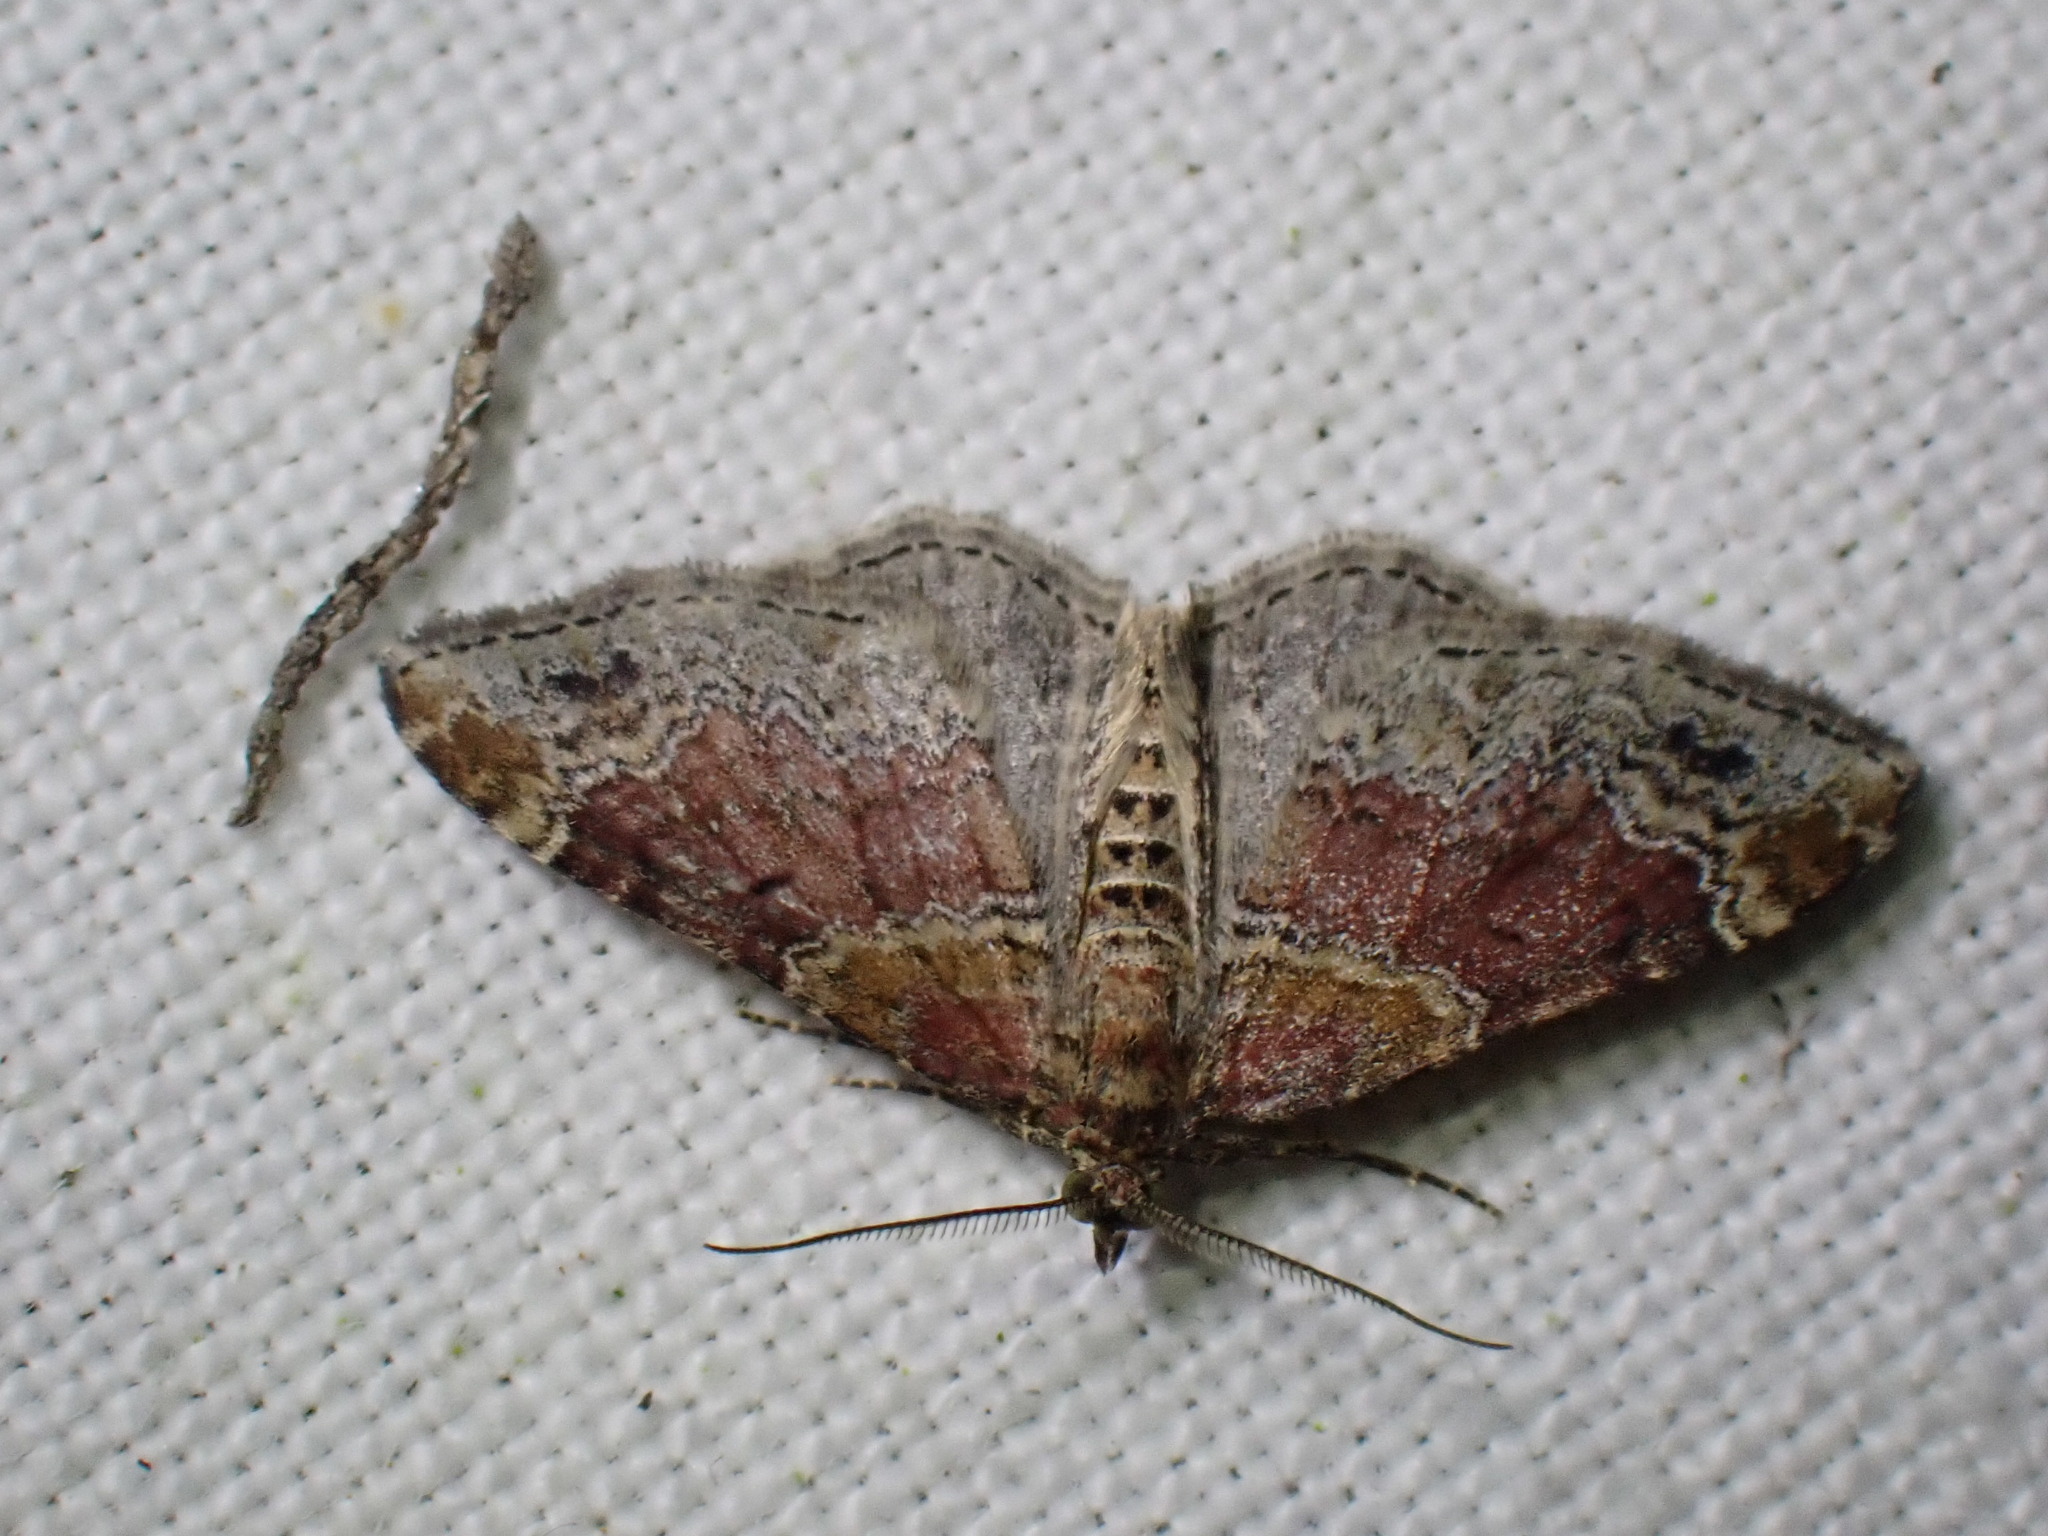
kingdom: Animalia
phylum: Arthropoda
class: Insecta
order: Lepidoptera
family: Geometridae
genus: Xanthorhoe
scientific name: Xanthorhoe spadicearia
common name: Red twin-spot carpet
